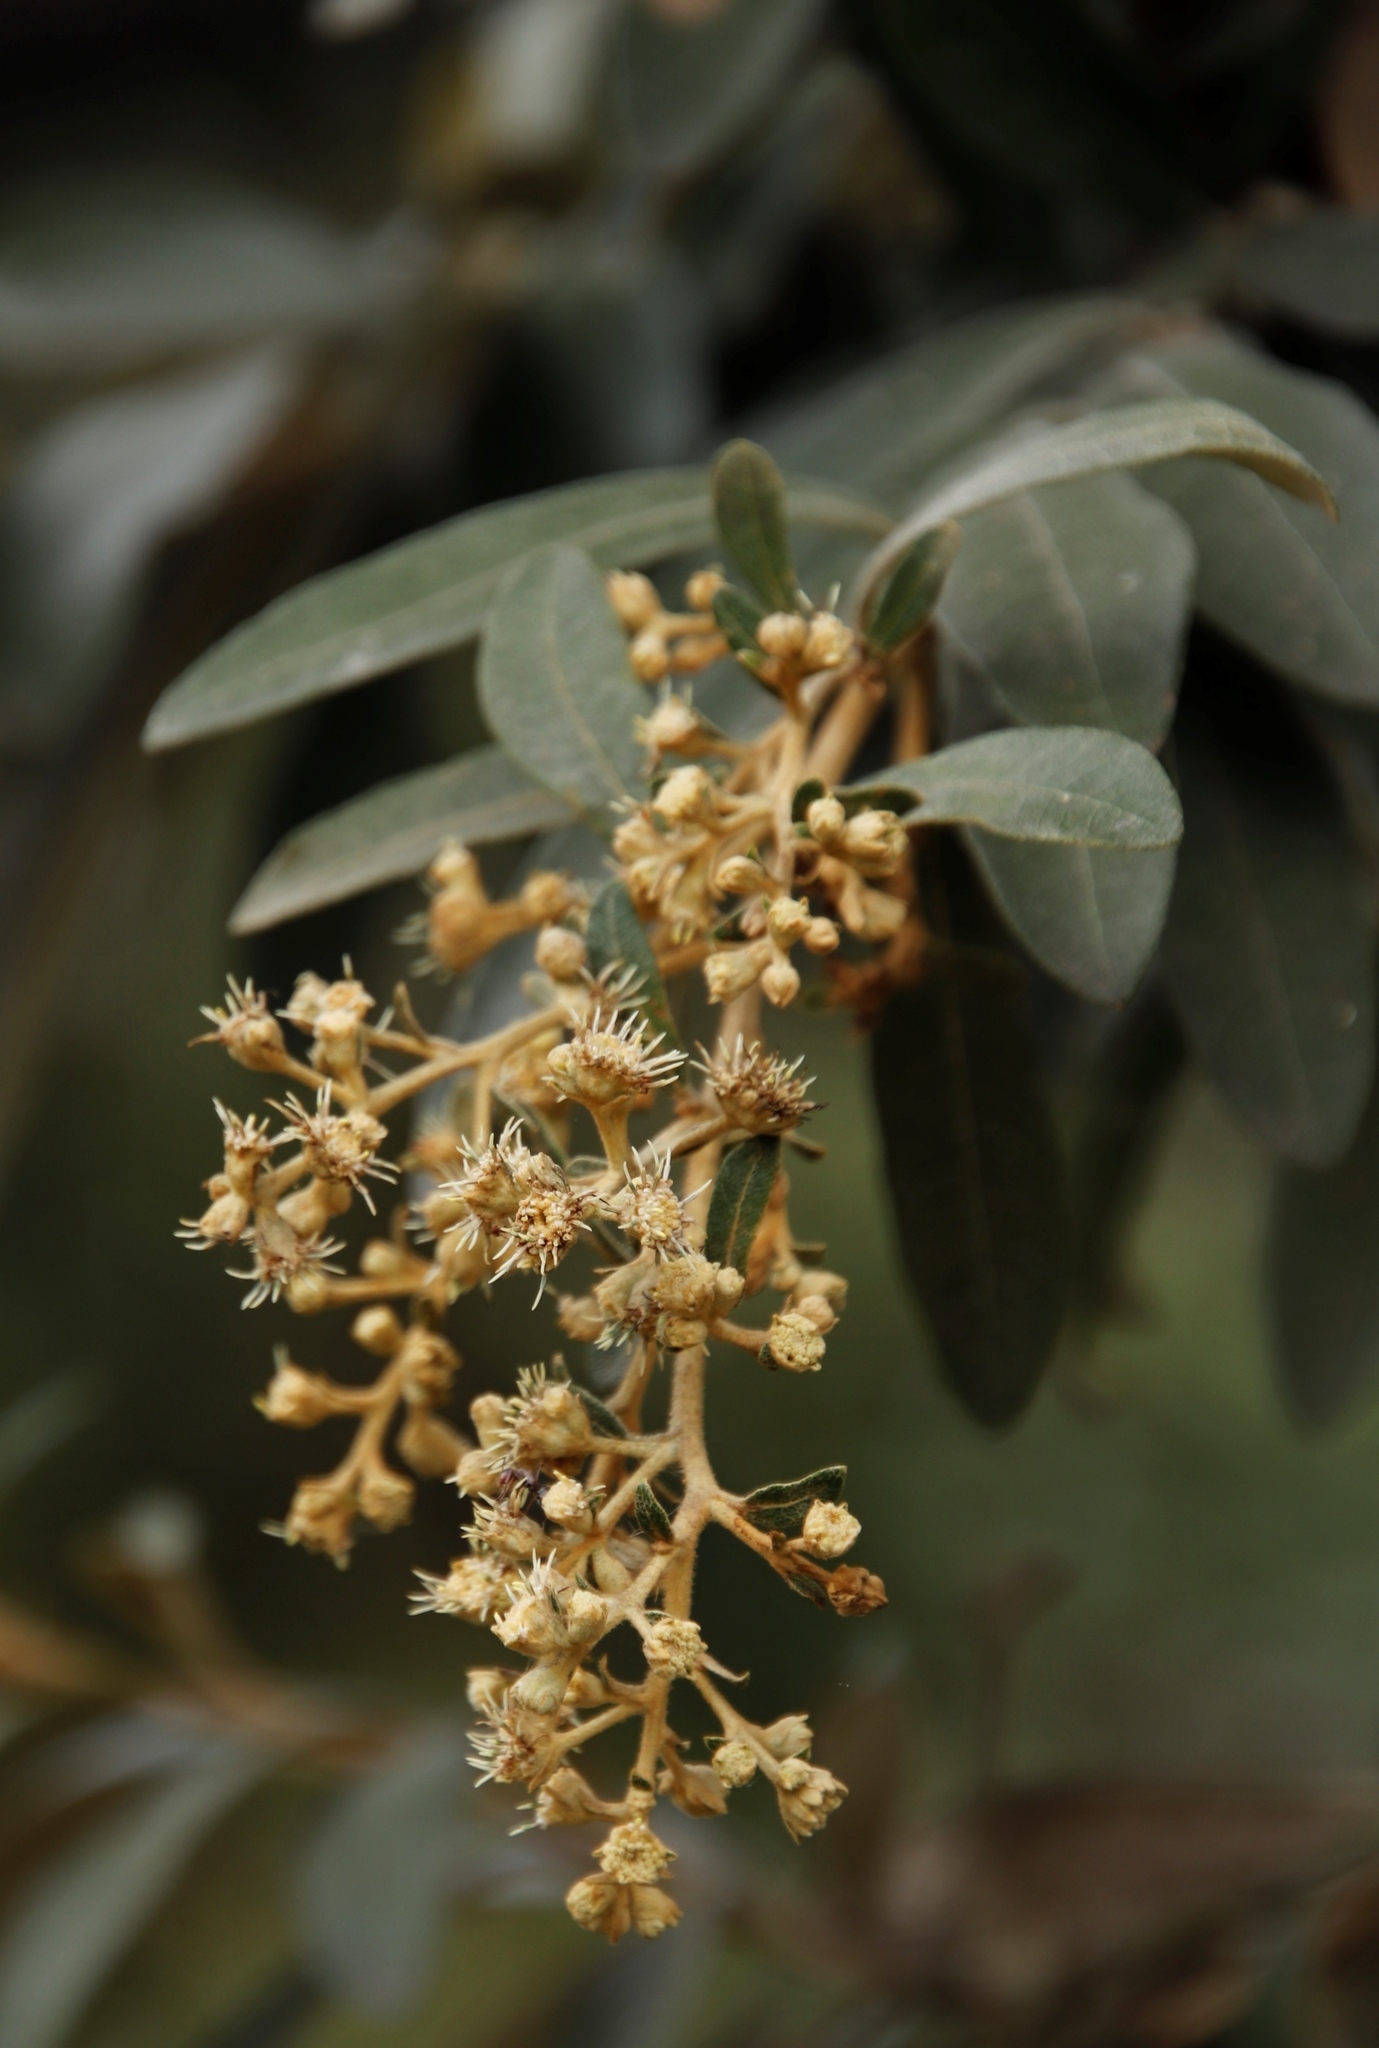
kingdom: Plantae
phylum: Tracheophyta
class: Magnoliopsida
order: Asterales
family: Asteraceae
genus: Tarchonanthus
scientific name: Tarchonanthus littoralis
